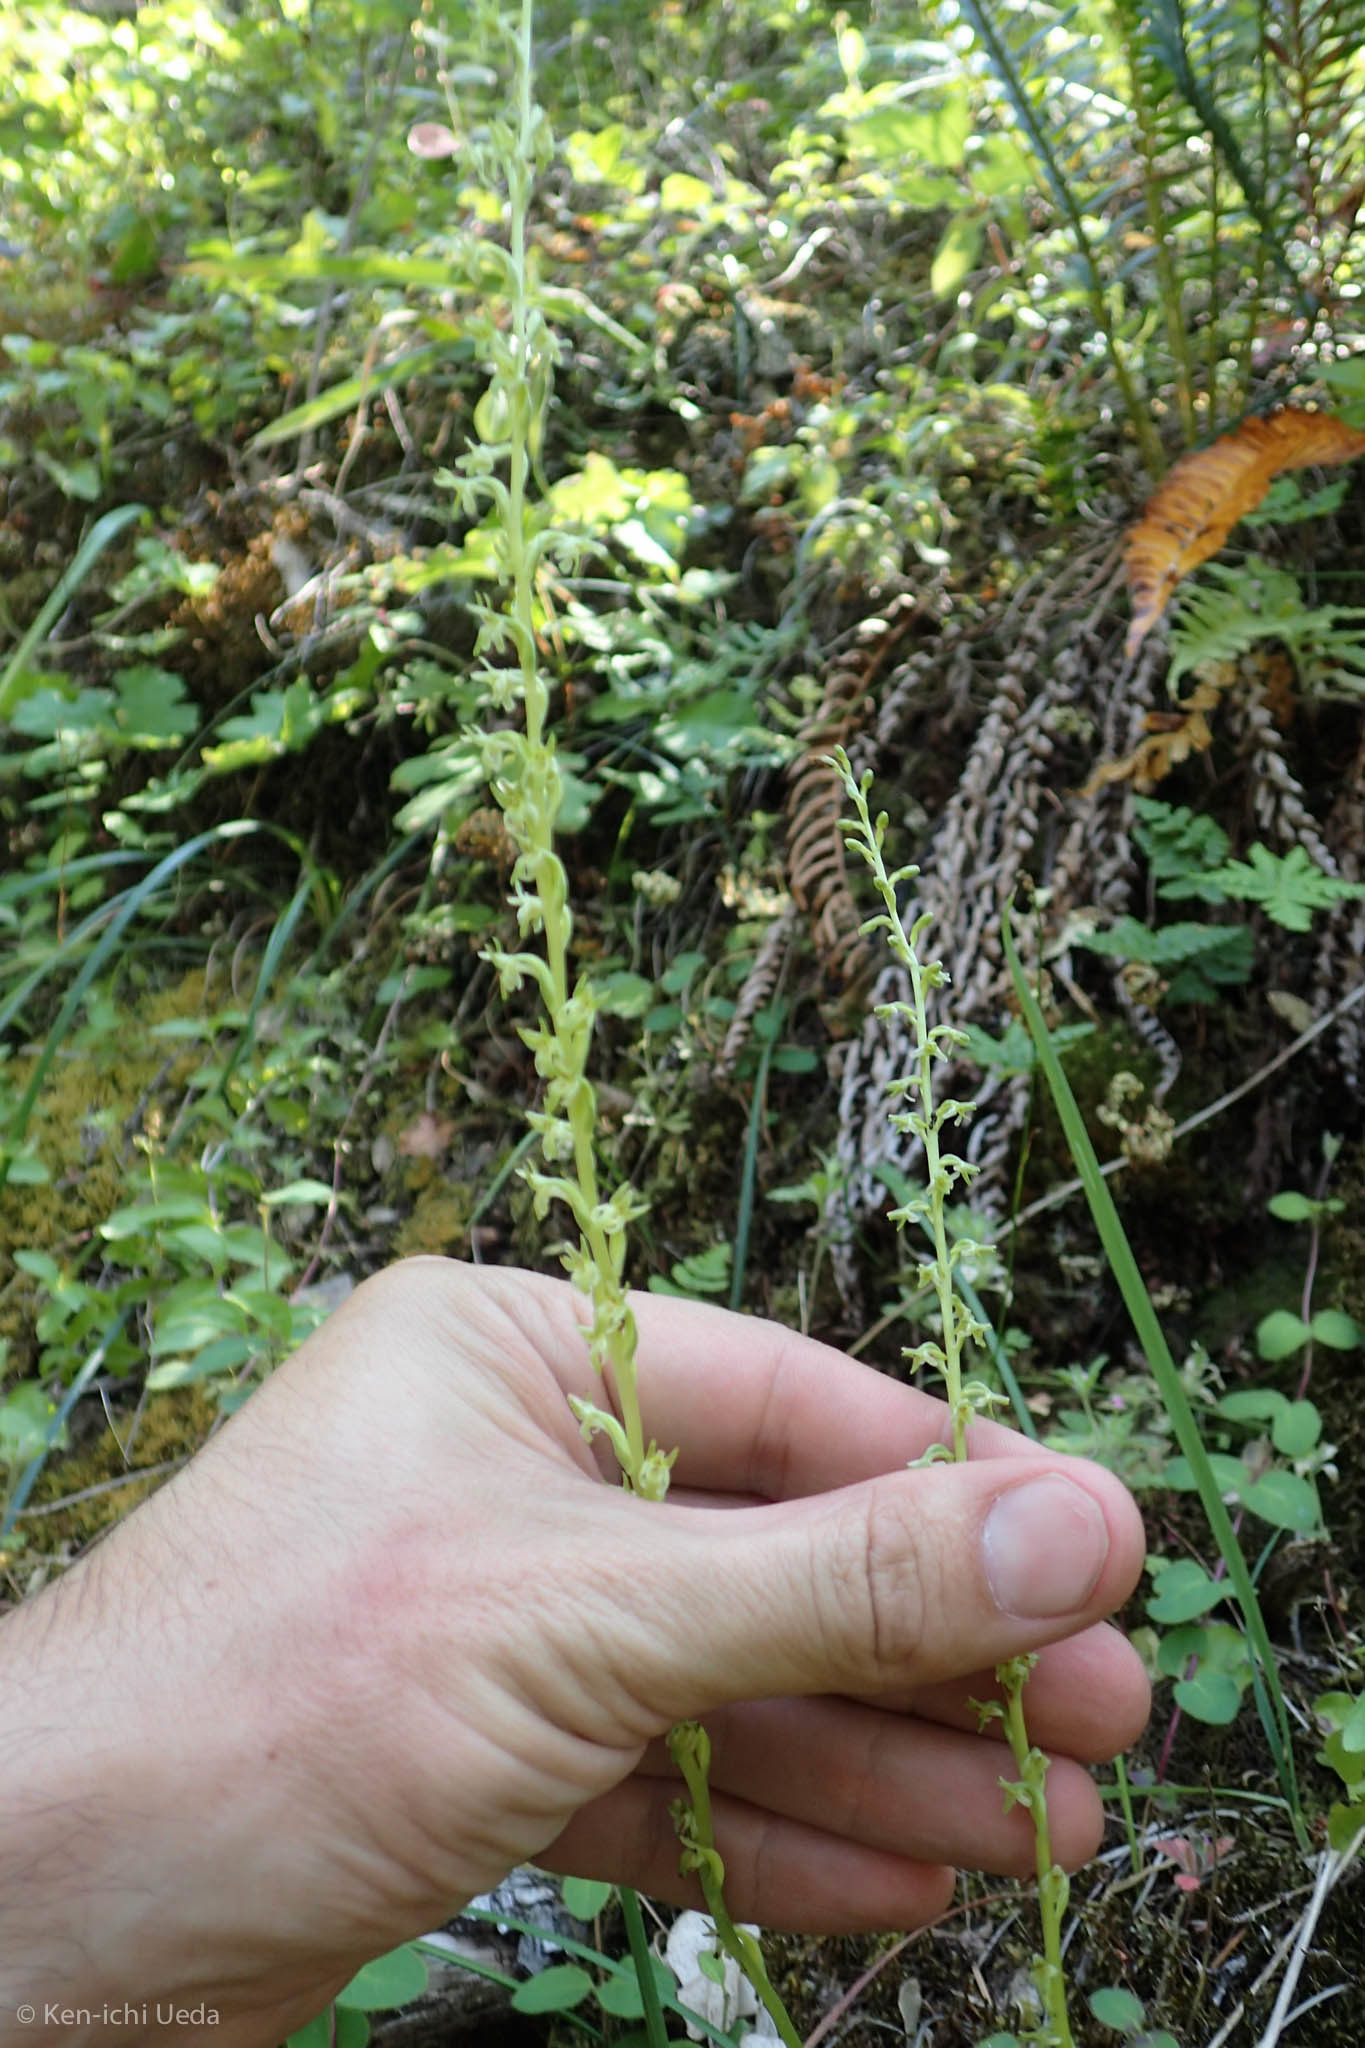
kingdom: Plantae
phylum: Tracheophyta
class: Liliopsida
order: Asparagales
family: Orchidaceae
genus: Platanthera
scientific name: Platanthera unalascensis
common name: Alaska bog orchid
